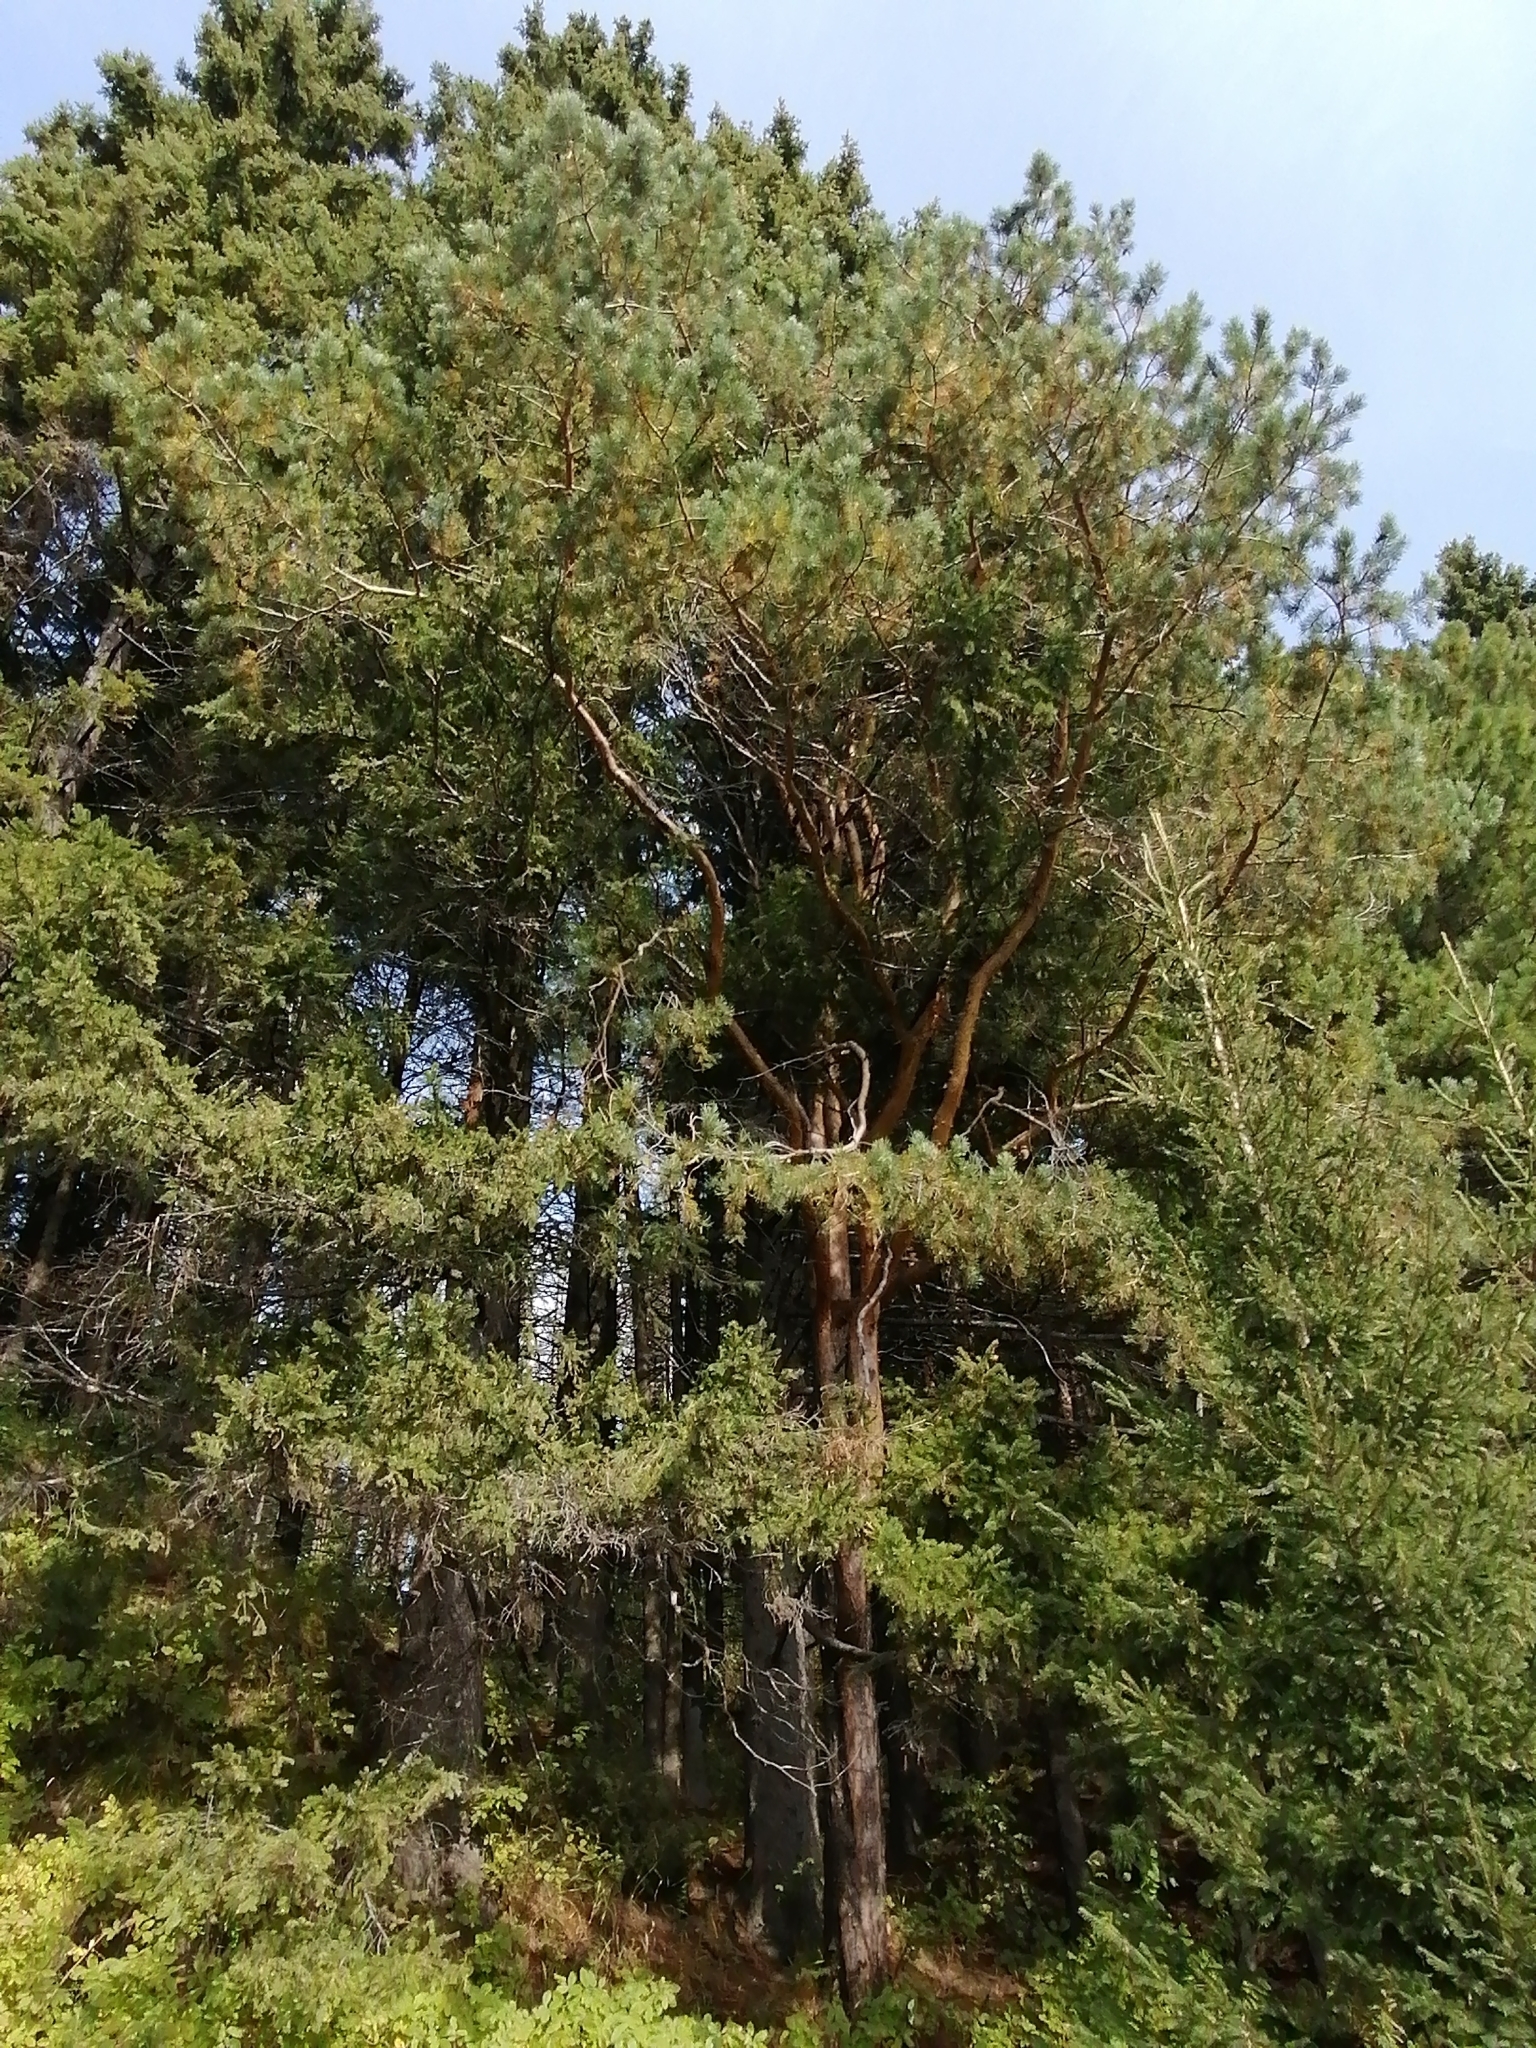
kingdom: Plantae
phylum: Tracheophyta
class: Pinopsida
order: Pinales
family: Pinaceae
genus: Pinus
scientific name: Pinus sylvestris
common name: Scots pine
